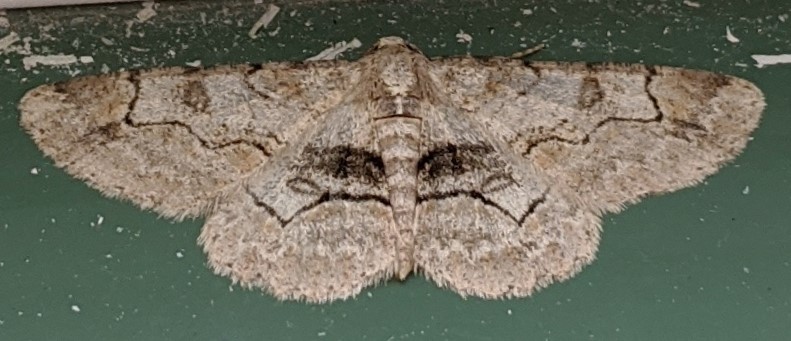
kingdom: Animalia
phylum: Arthropoda
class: Insecta
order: Lepidoptera
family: Geometridae
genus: Iridopsis
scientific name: Iridopsis larvaria
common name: Bent-line gray
